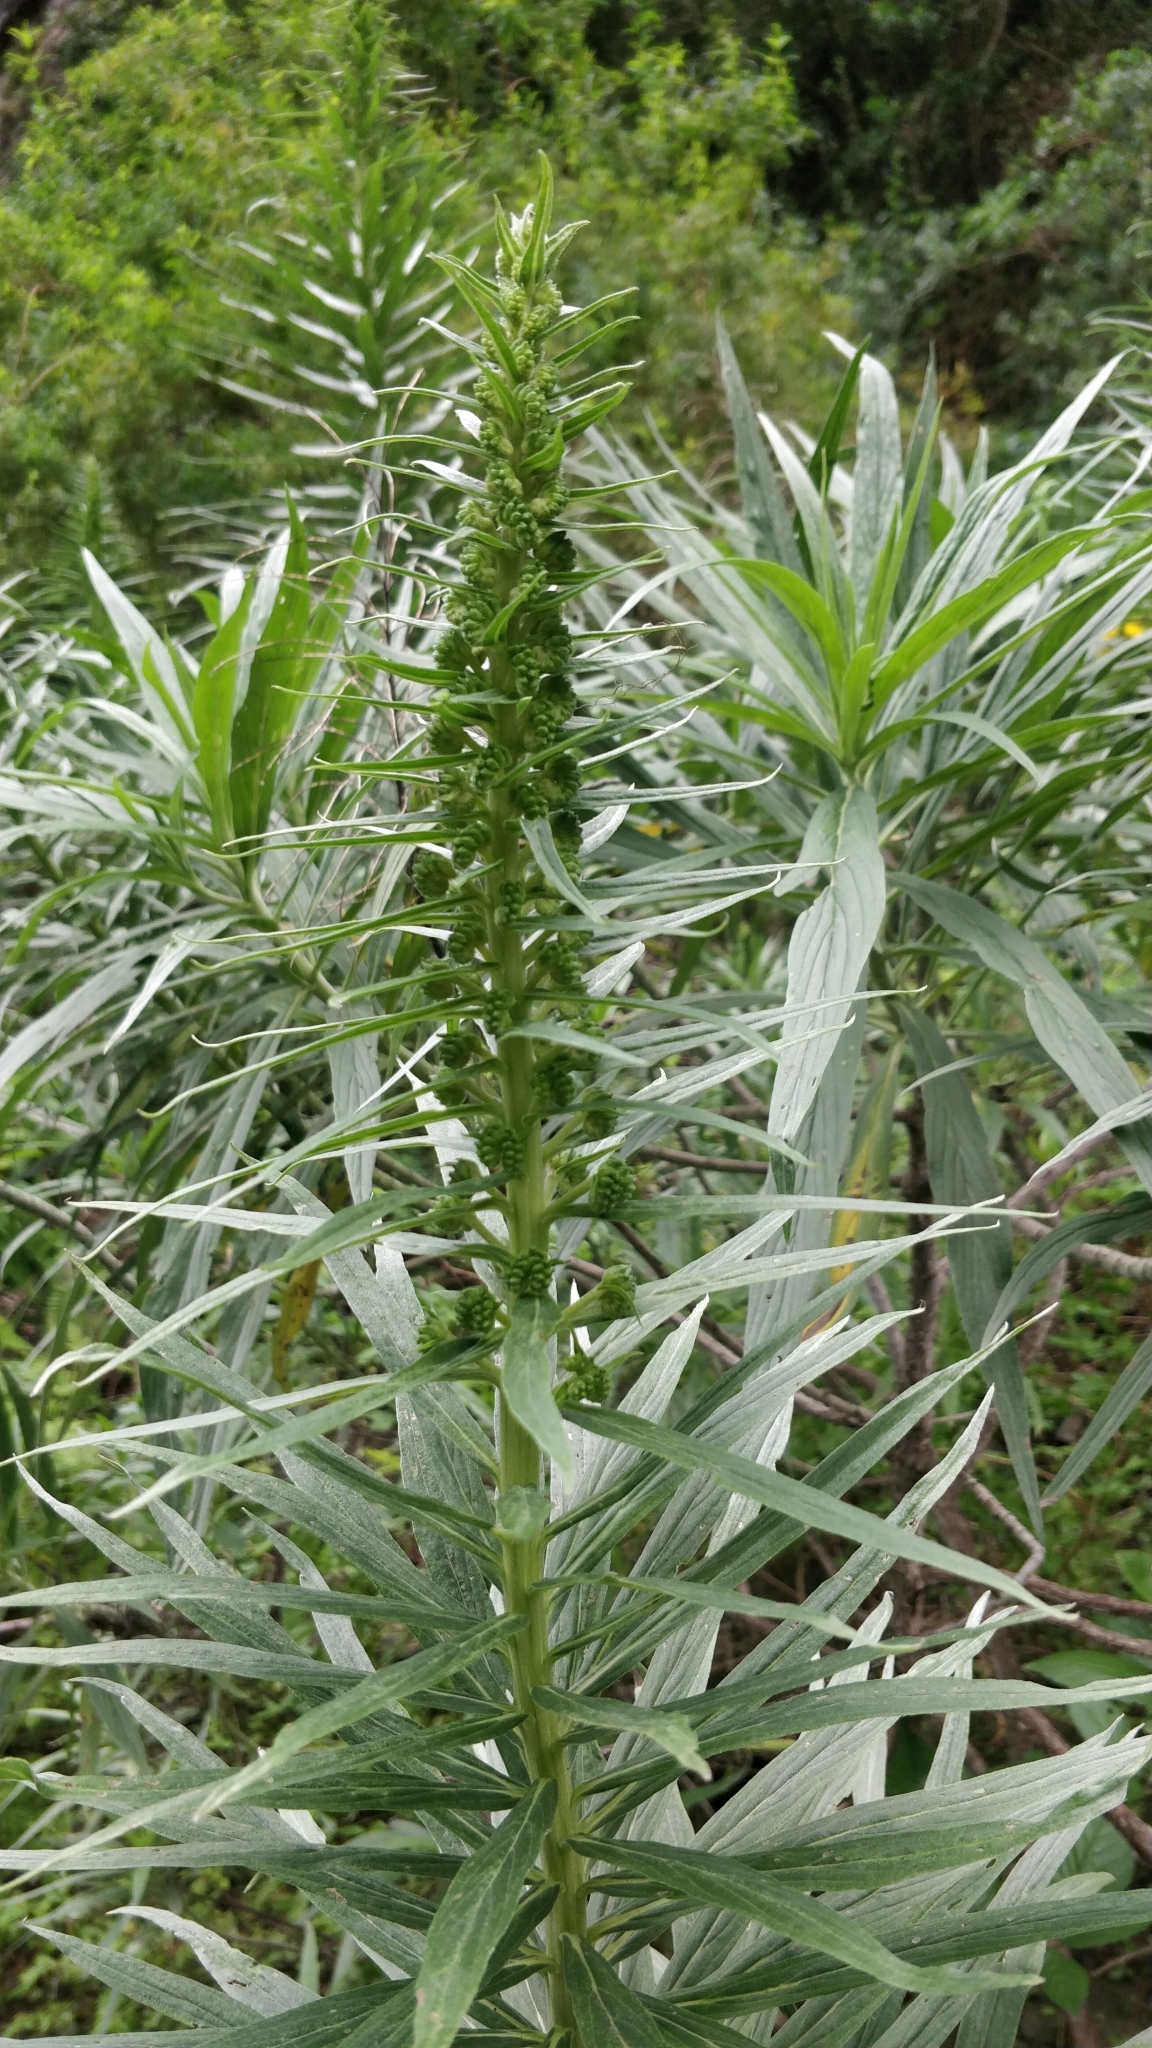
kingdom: Plantae
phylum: Tracheophyta
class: Magnoliopsida
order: Boraginales
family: Boraginaceae
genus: Echium
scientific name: Echium virescens
